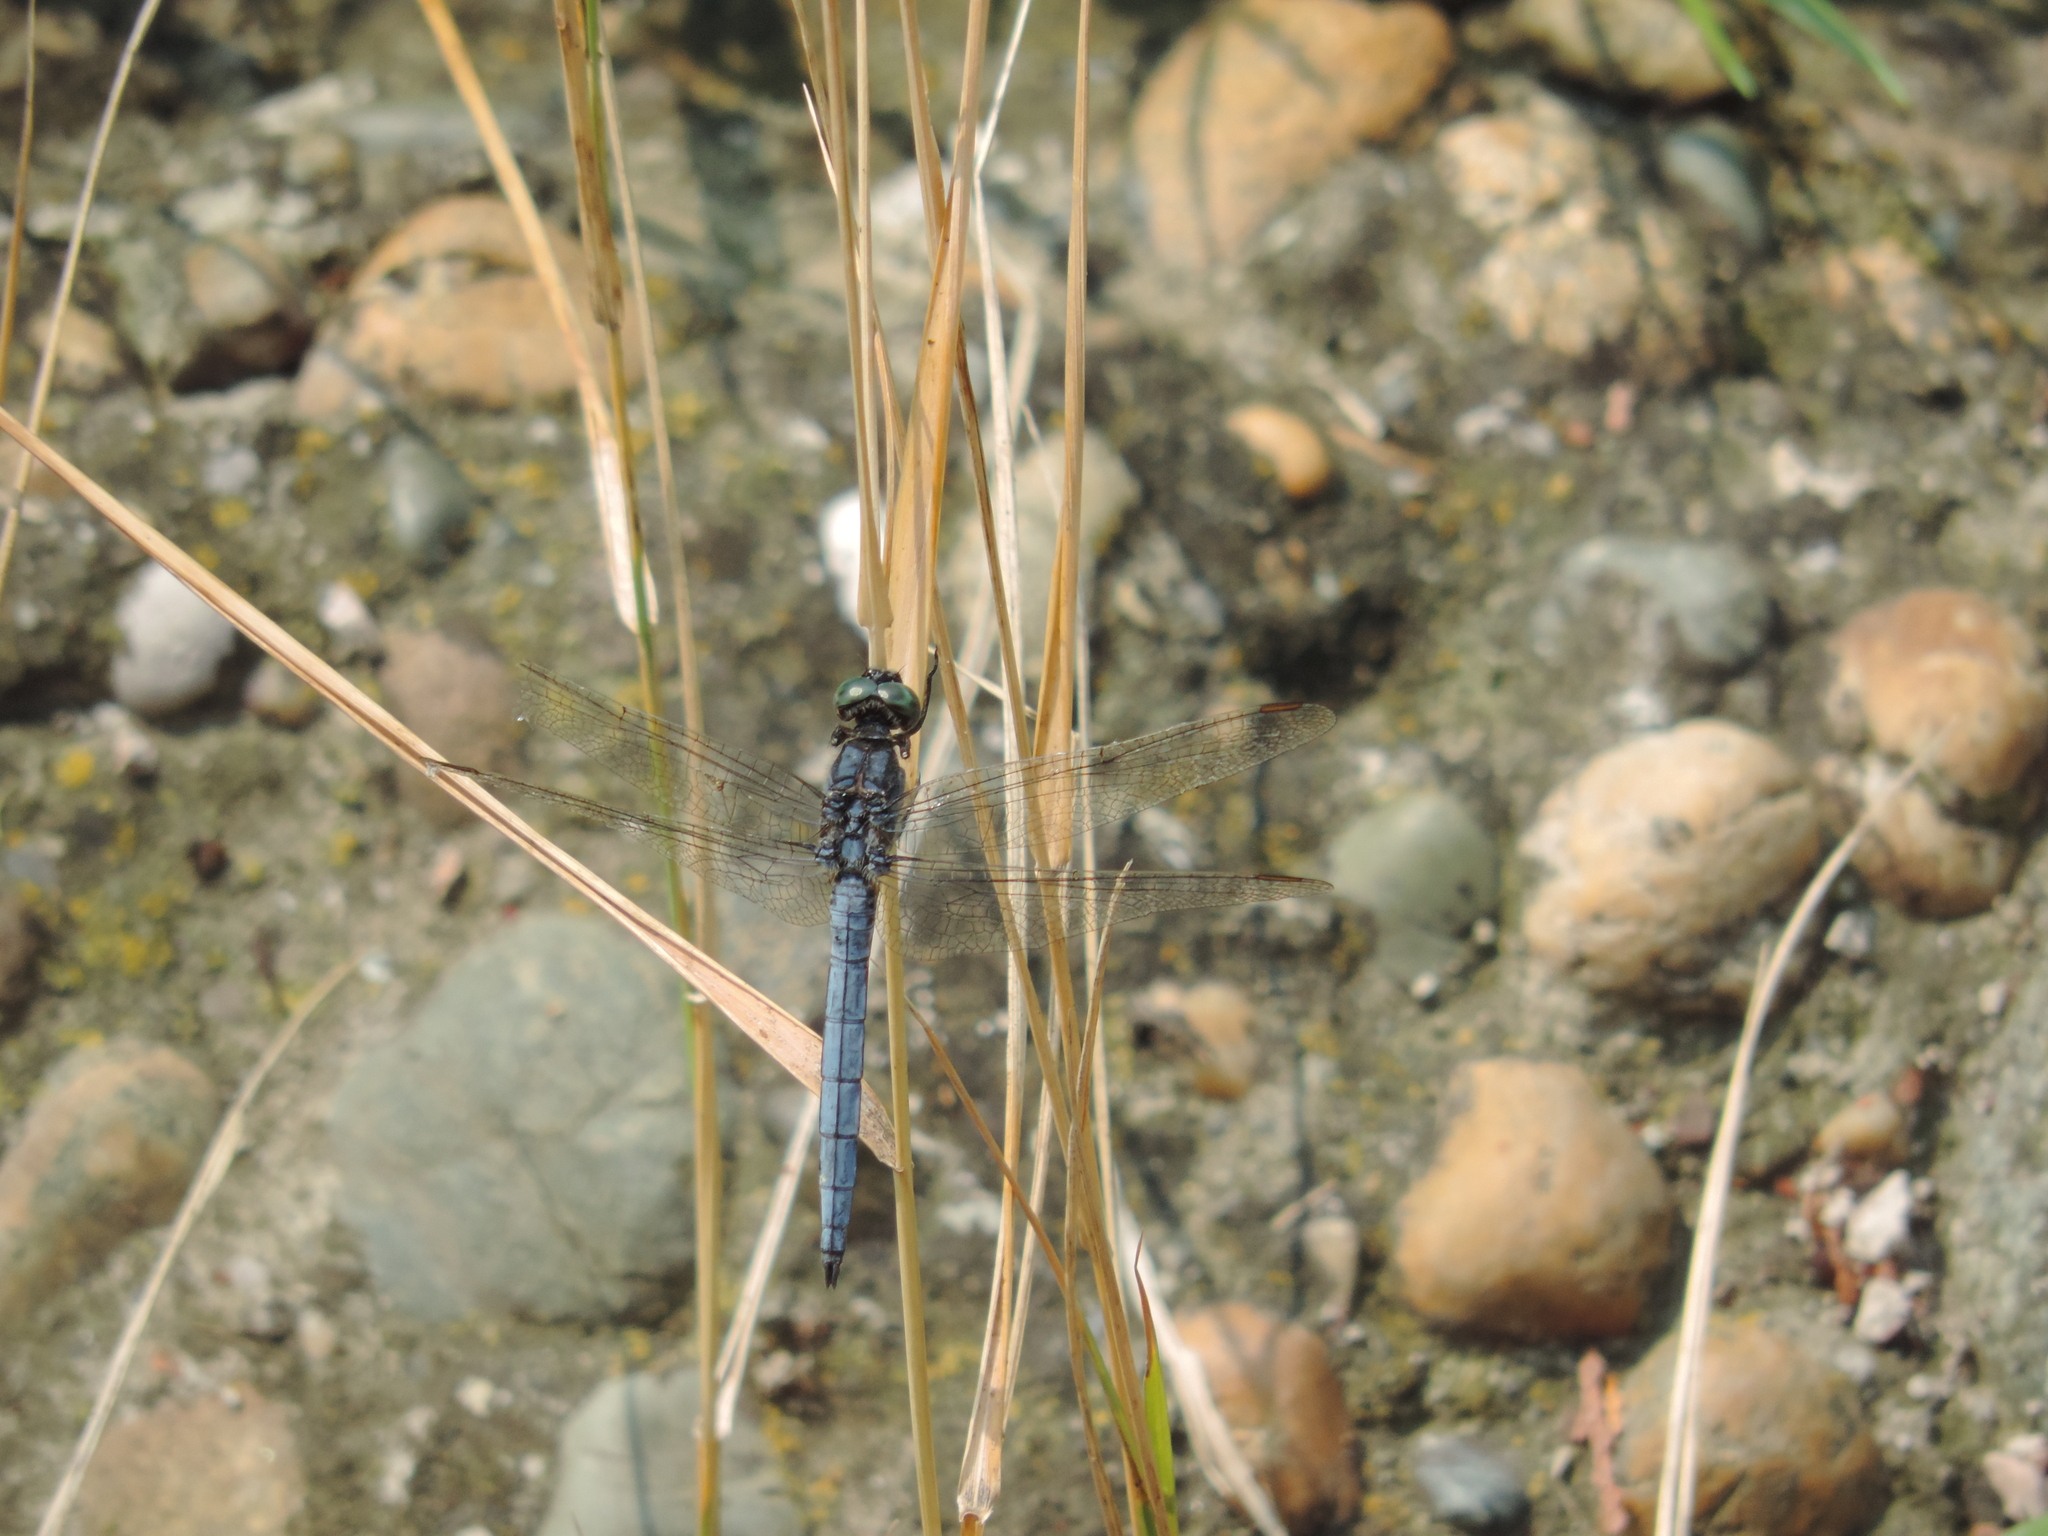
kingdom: Animalia
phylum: Arthropoda
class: Insecta
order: Odonata
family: Libellulidae
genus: Orthetrum
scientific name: Orthetrum coerulescens
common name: Keeled skimmer
